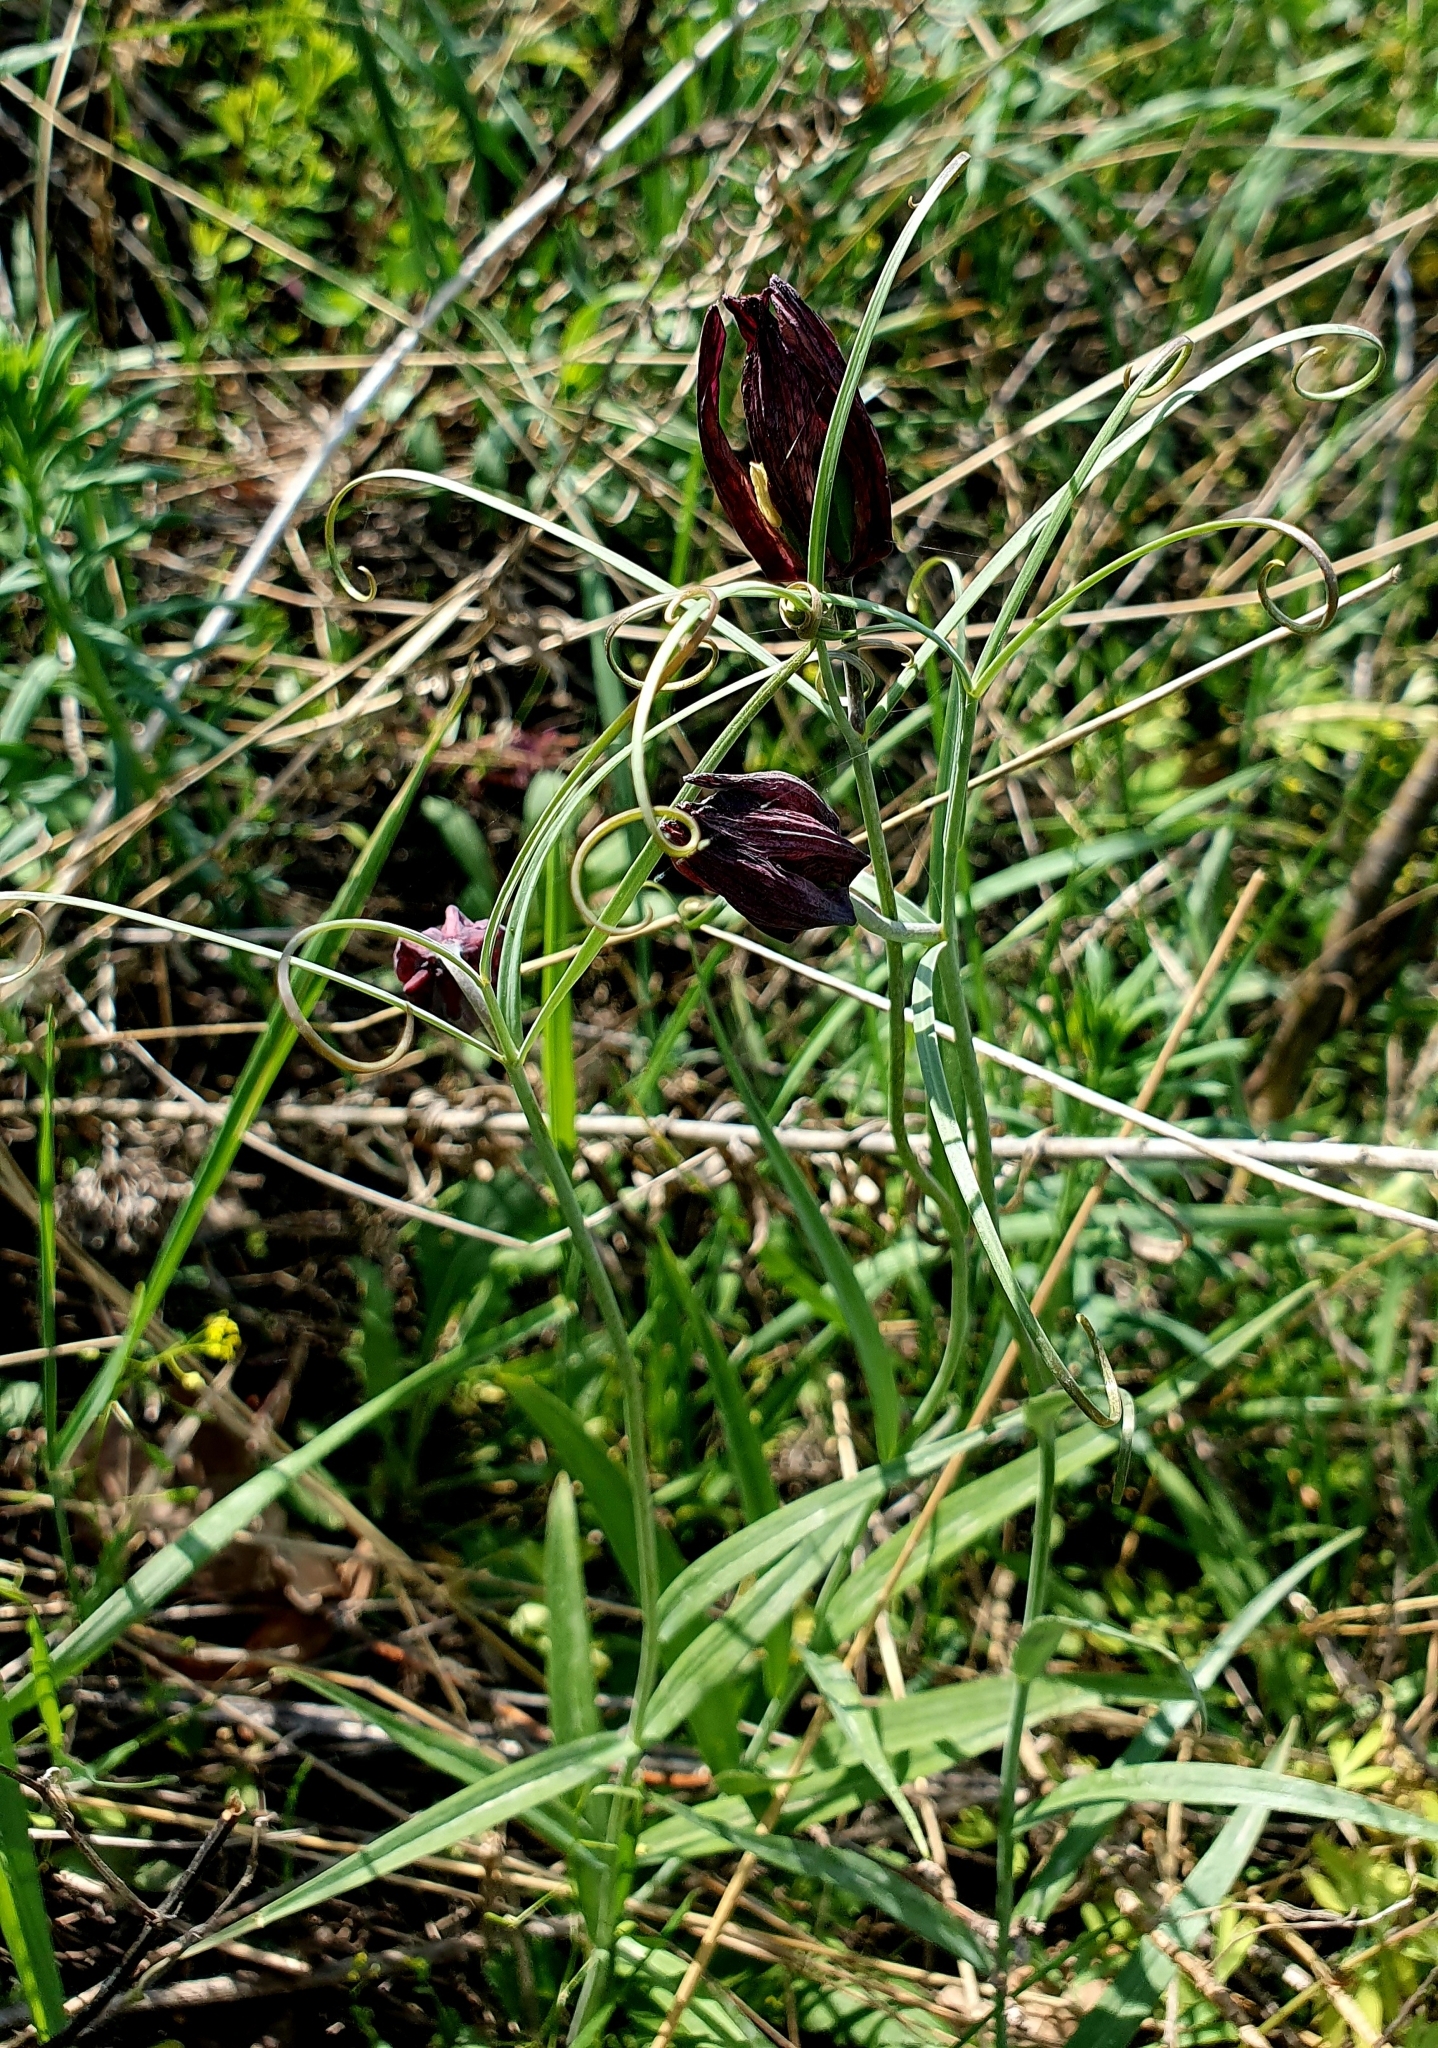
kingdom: Plantae
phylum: Tracheophyta
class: Liliopsida
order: Liliales
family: Liliaceae
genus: Fritillaria
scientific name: Fritillaria ruthenica
